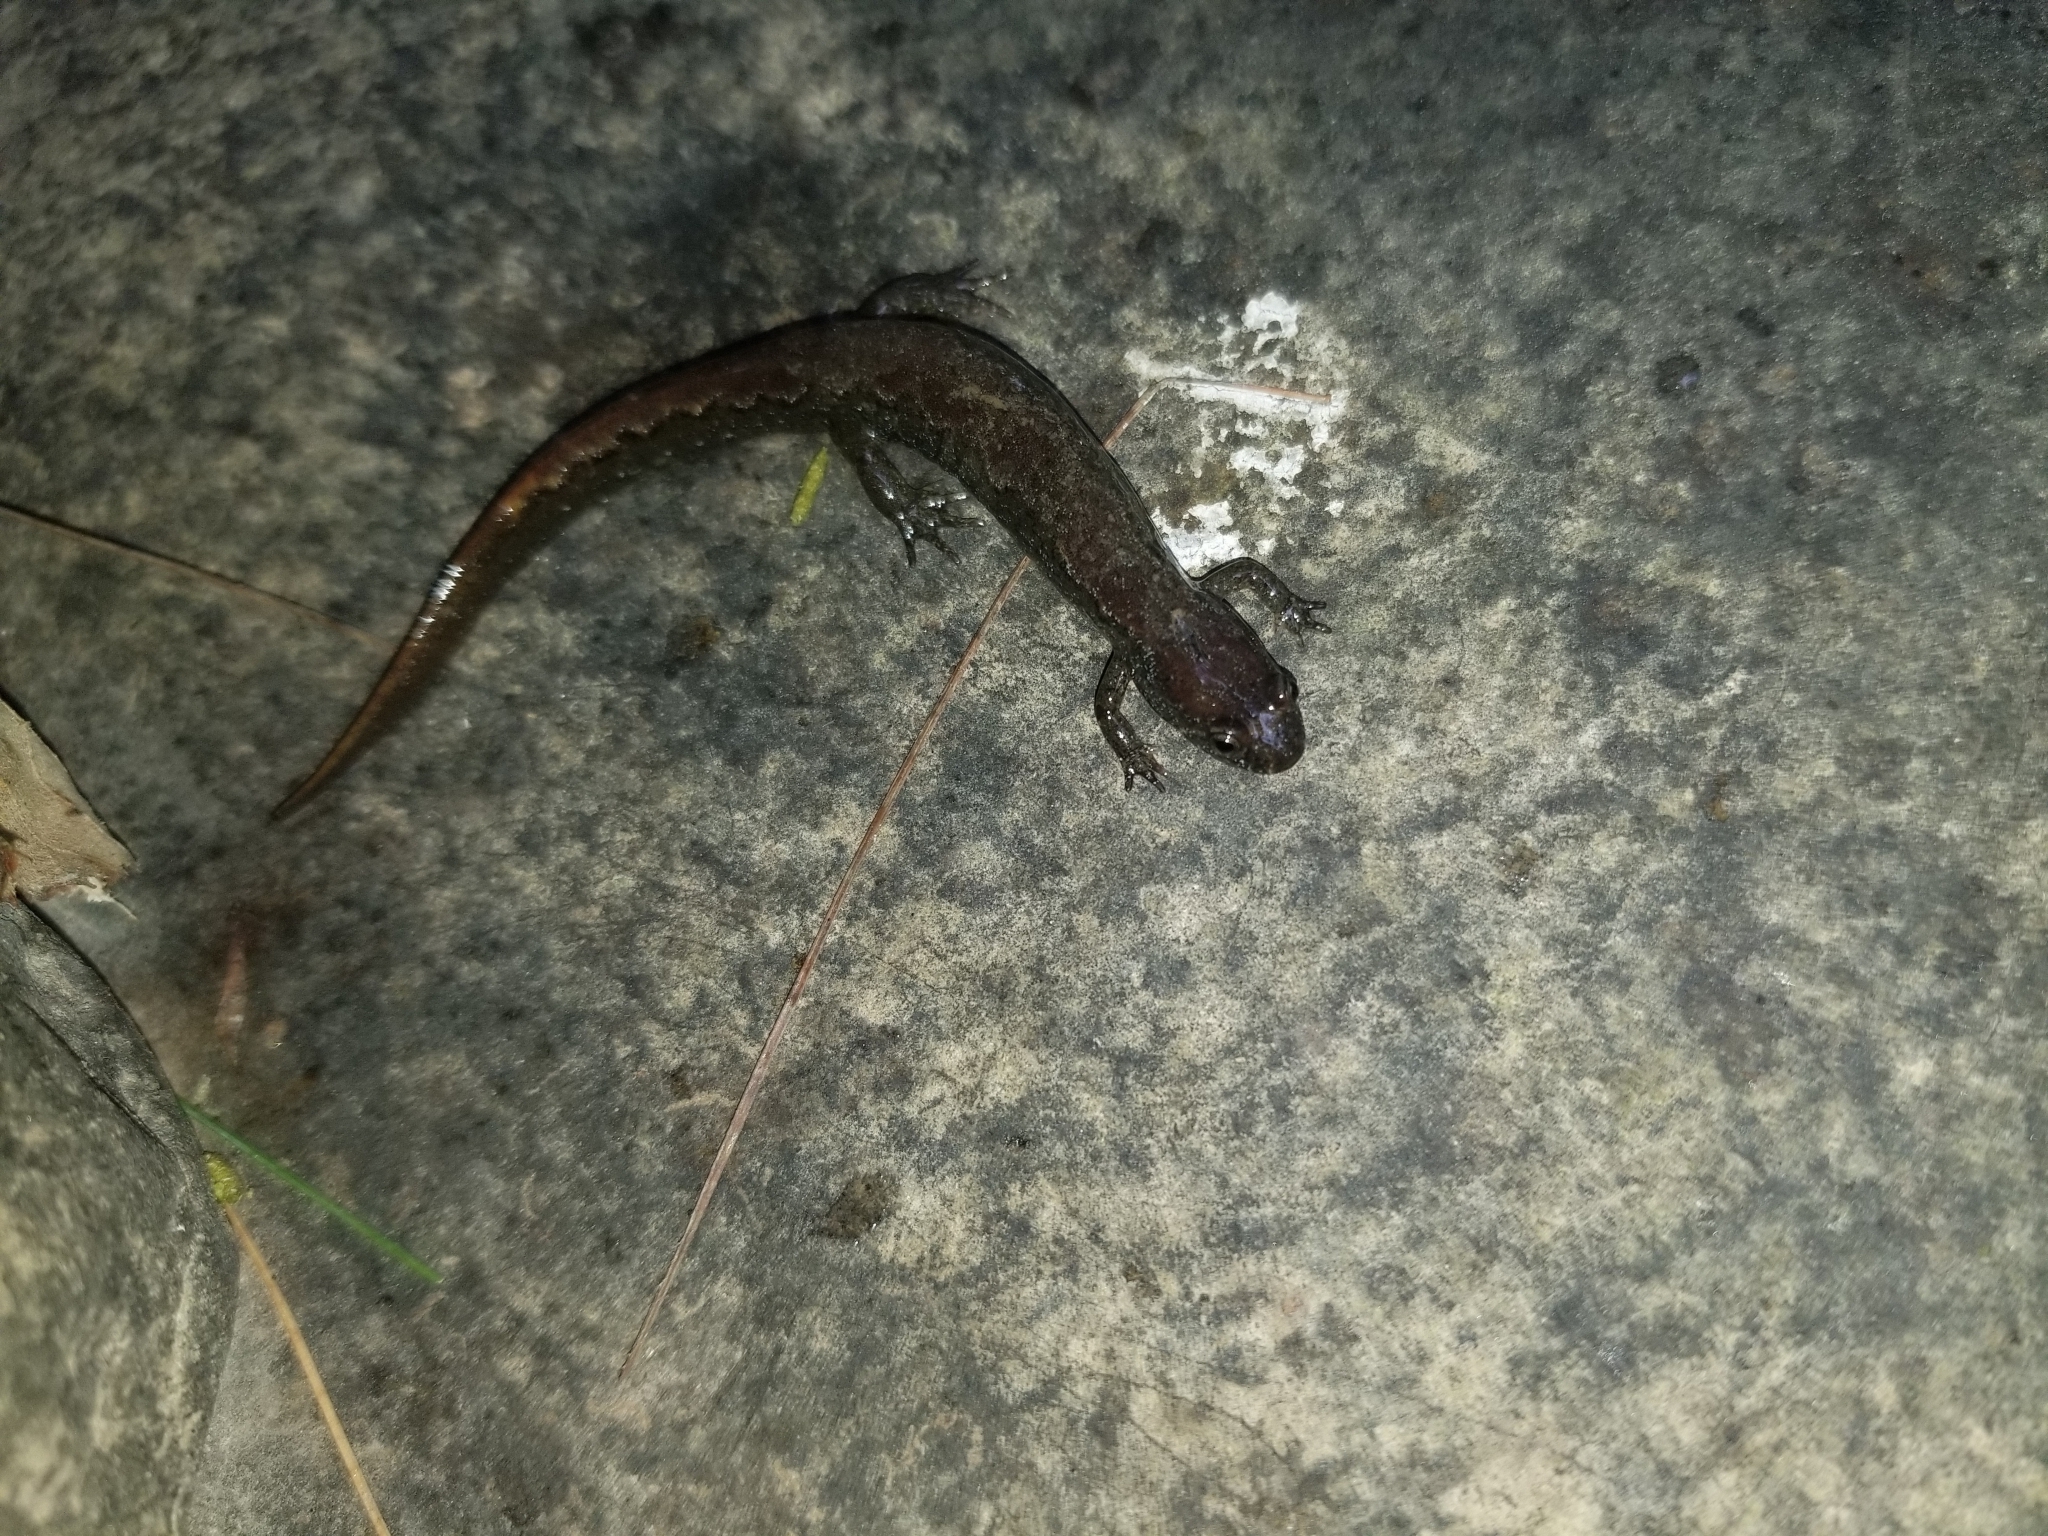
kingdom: Animalia
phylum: Chordata
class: Amphibia
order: Caudata
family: Plethodontidae
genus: Desmognathus
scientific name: Desmognathus fuscus
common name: Northern dusky salamander
